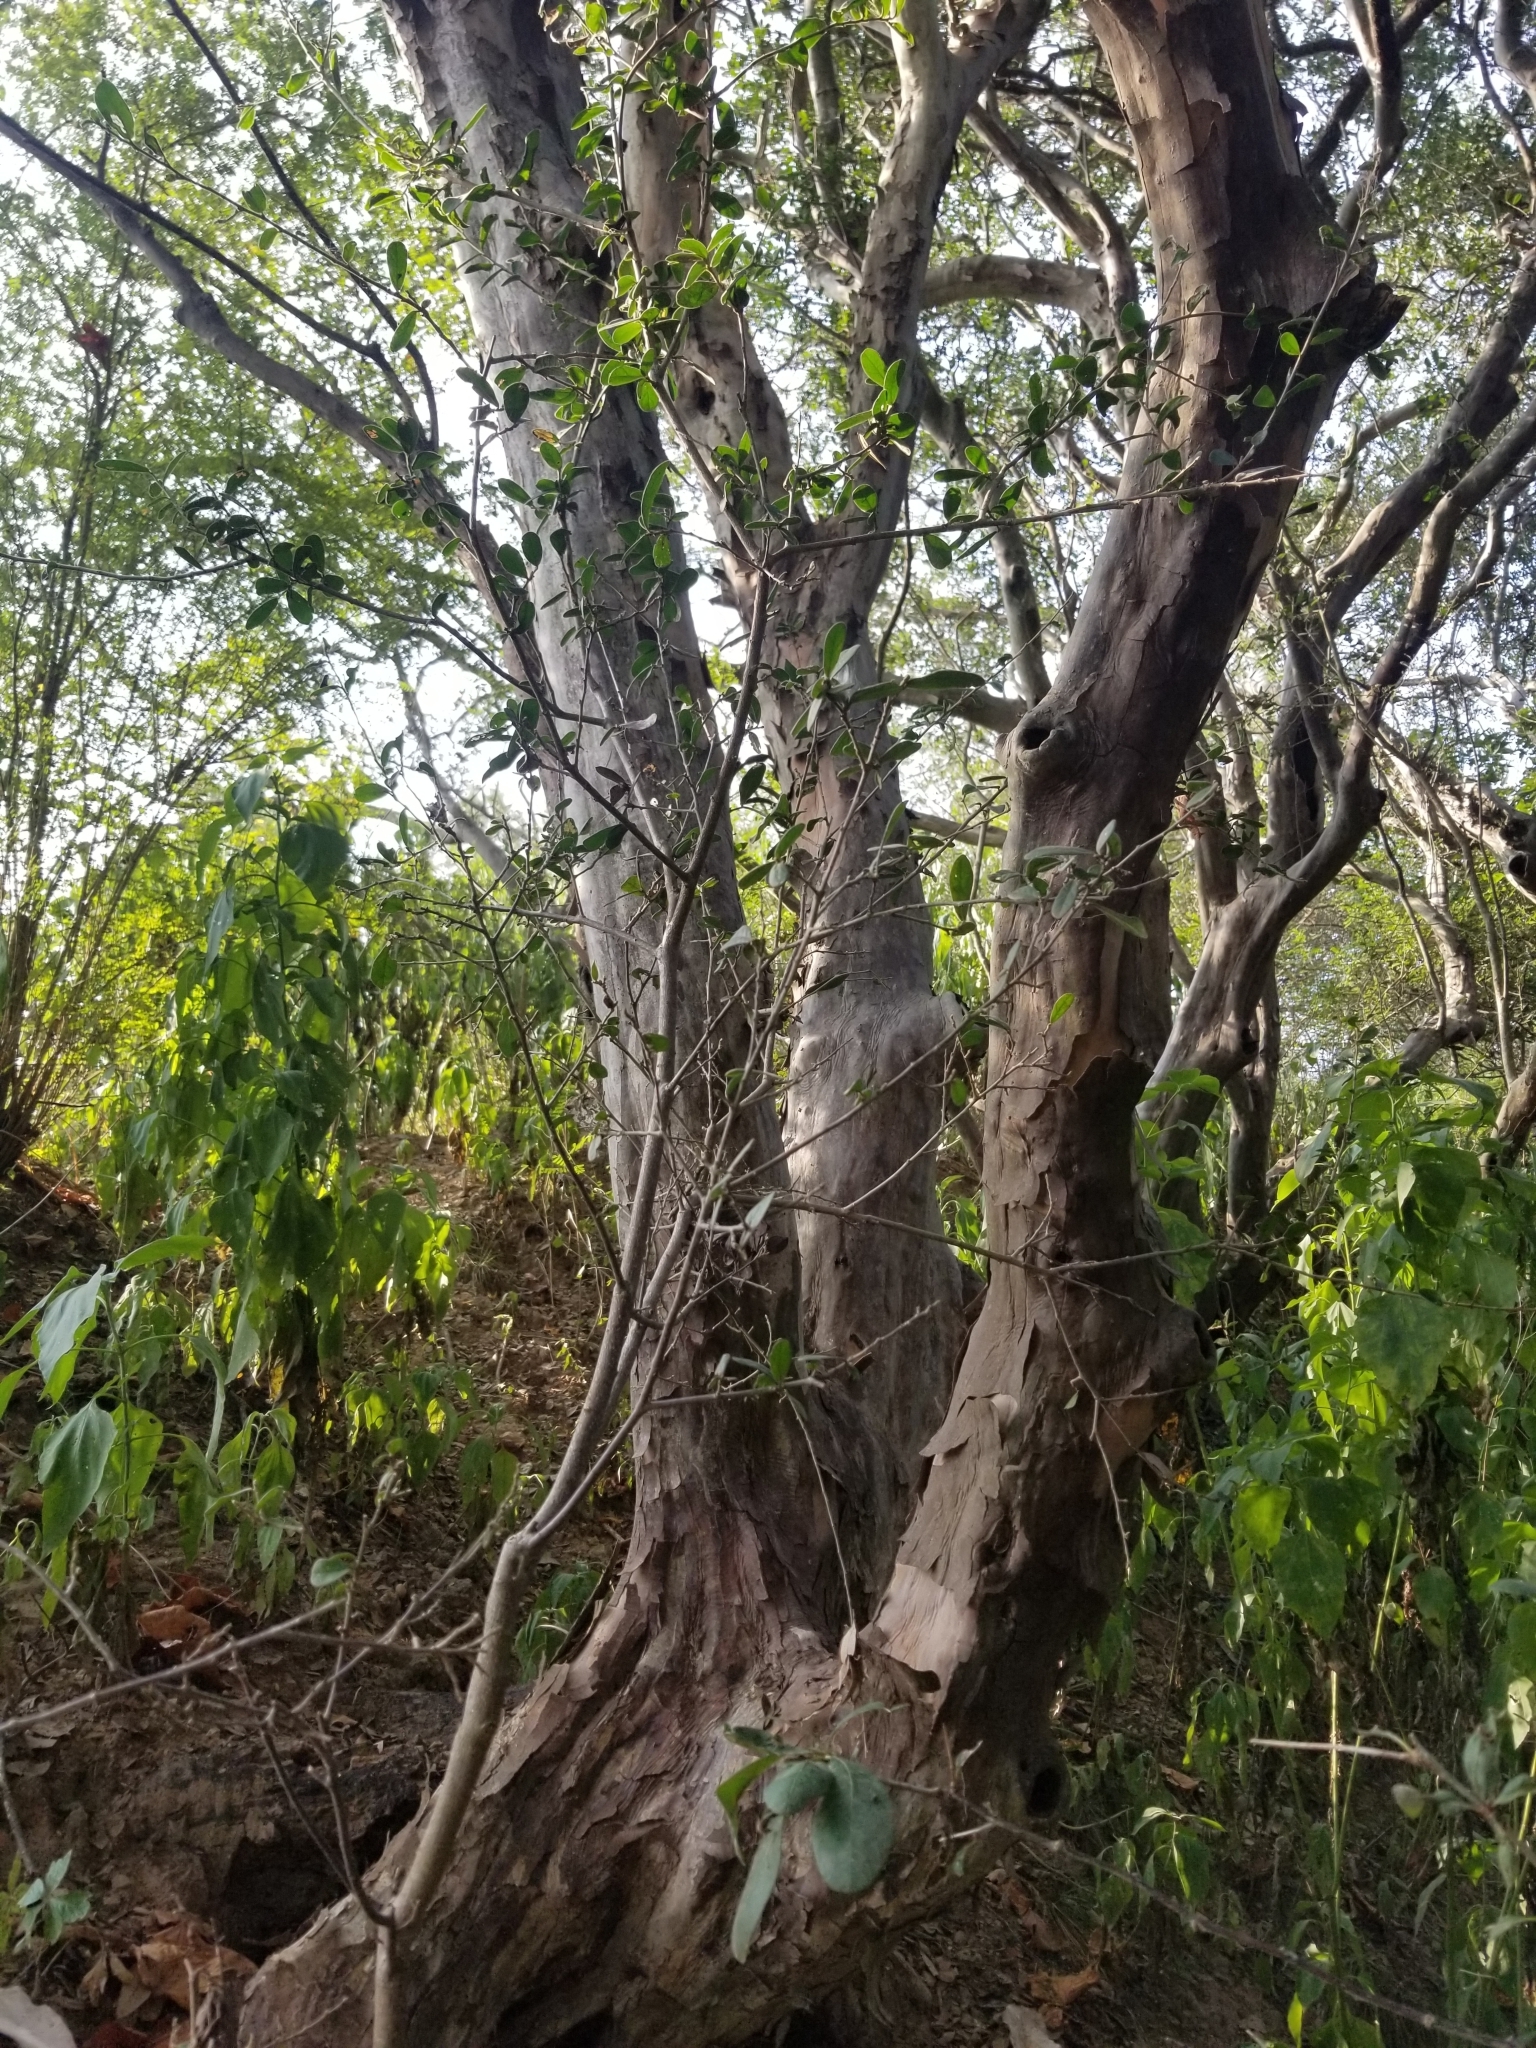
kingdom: Plantae
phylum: Tracheophyta
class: Magnoliopsida
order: Ericales
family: Ebenaceae
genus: Diospyros
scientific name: Diospyros texana
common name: Texas persimmon
